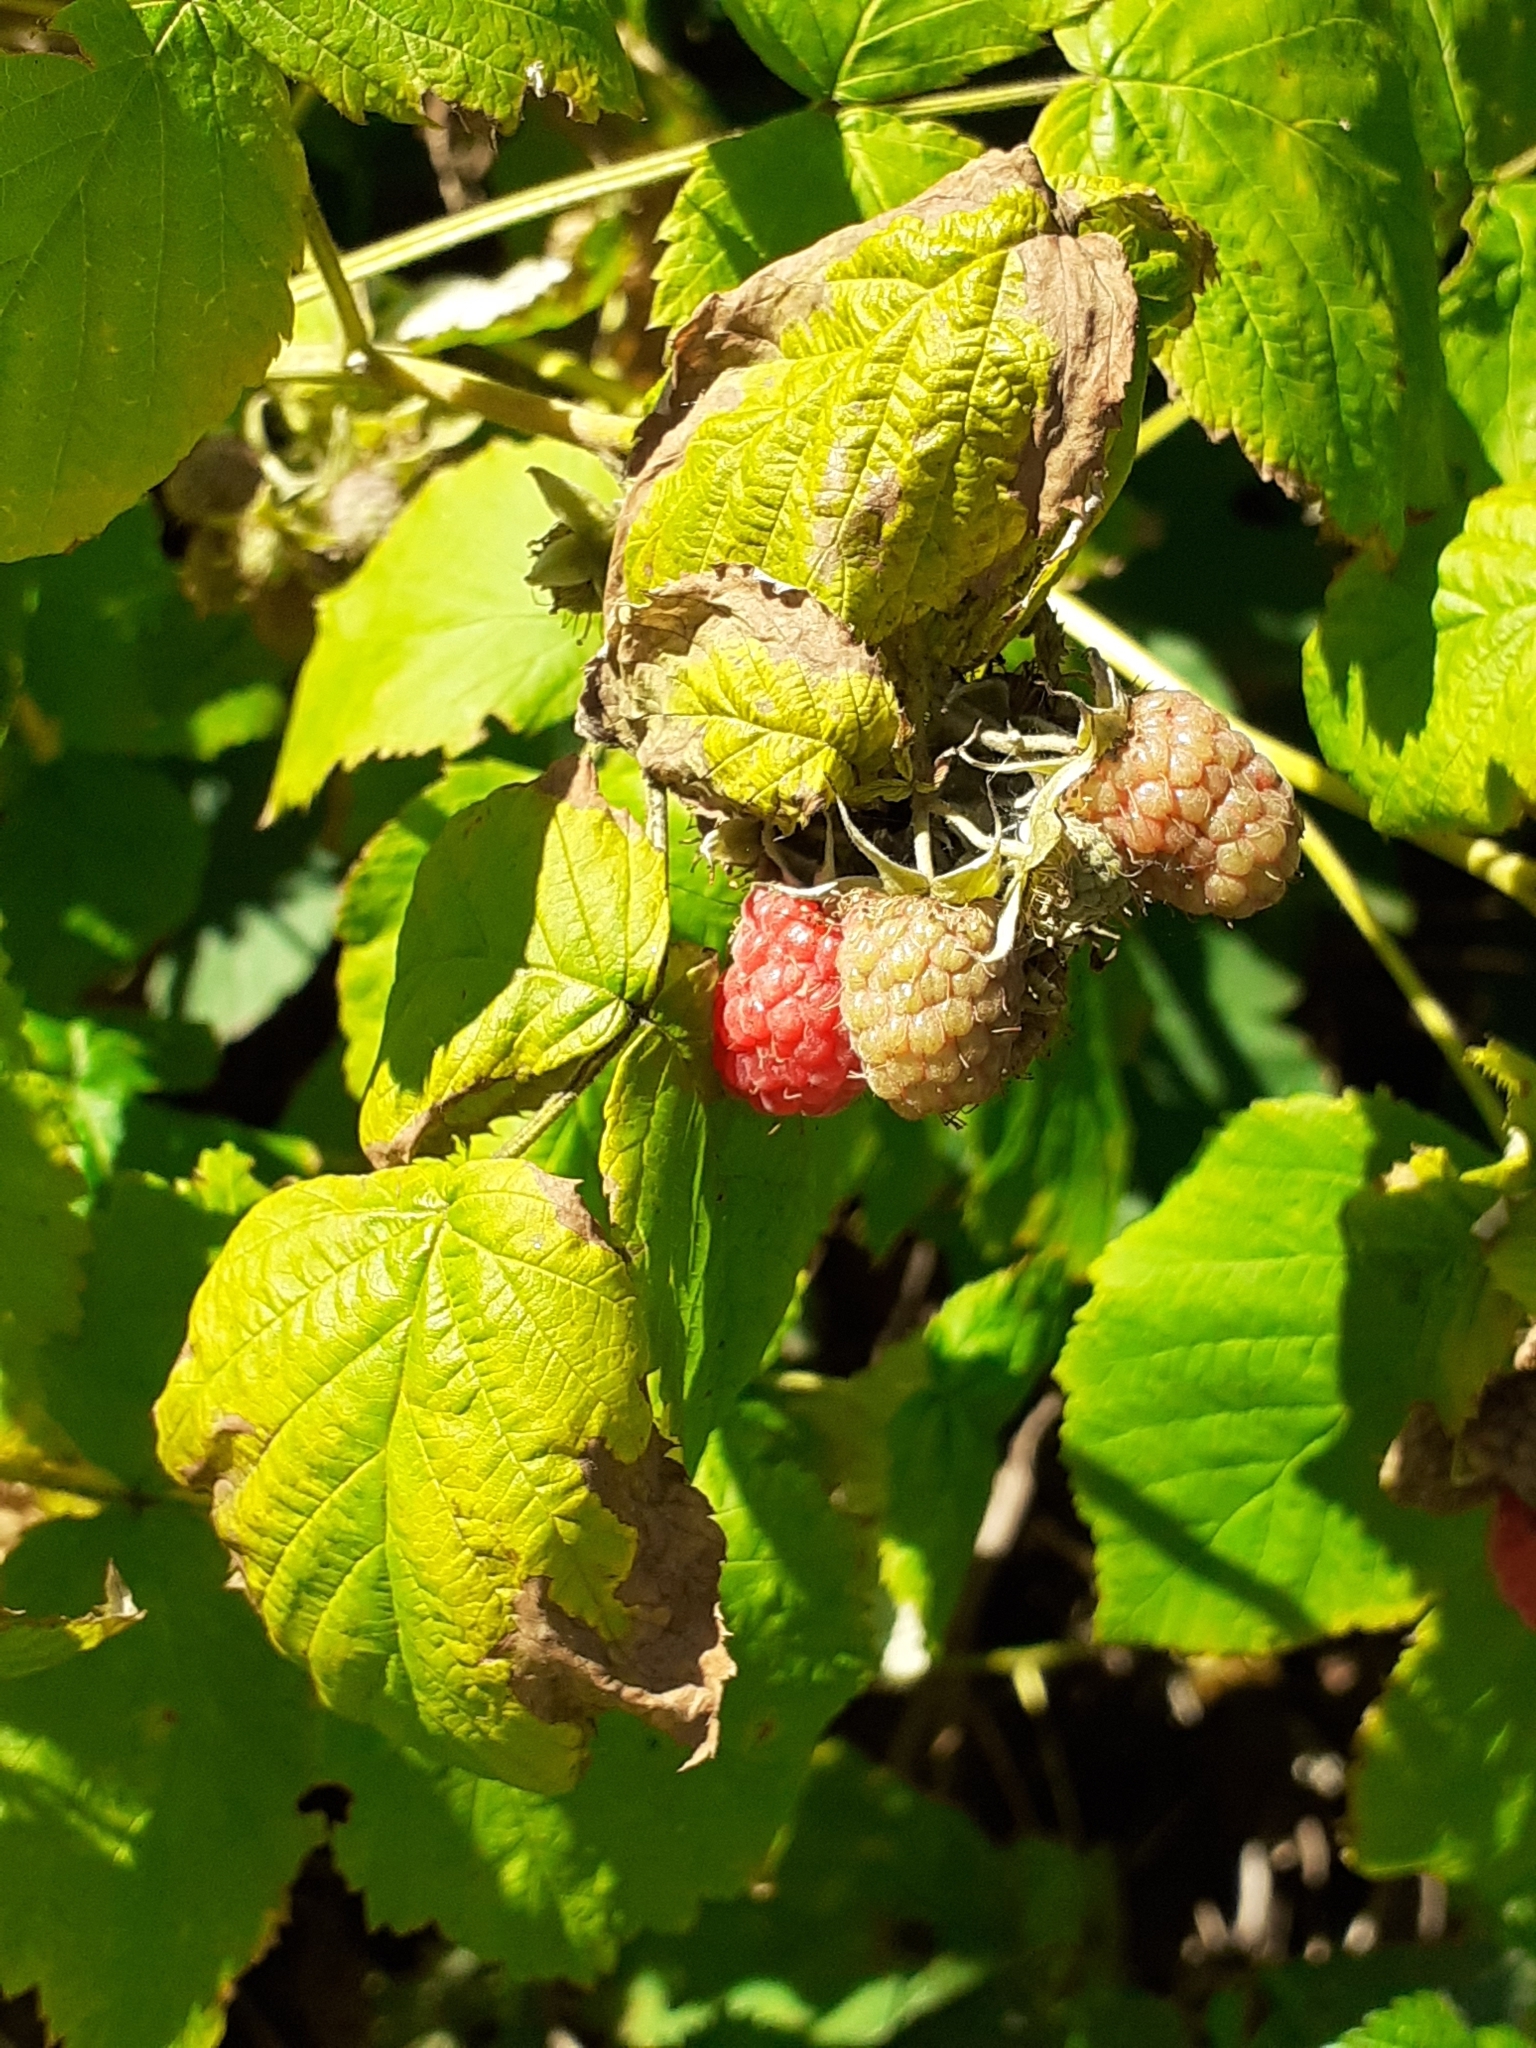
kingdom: Plantae
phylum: Tracheophyta
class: Magnoliopsida
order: Rosales
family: Rosaceae
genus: Rubus
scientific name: Rubus idaeus
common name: Raspberry
